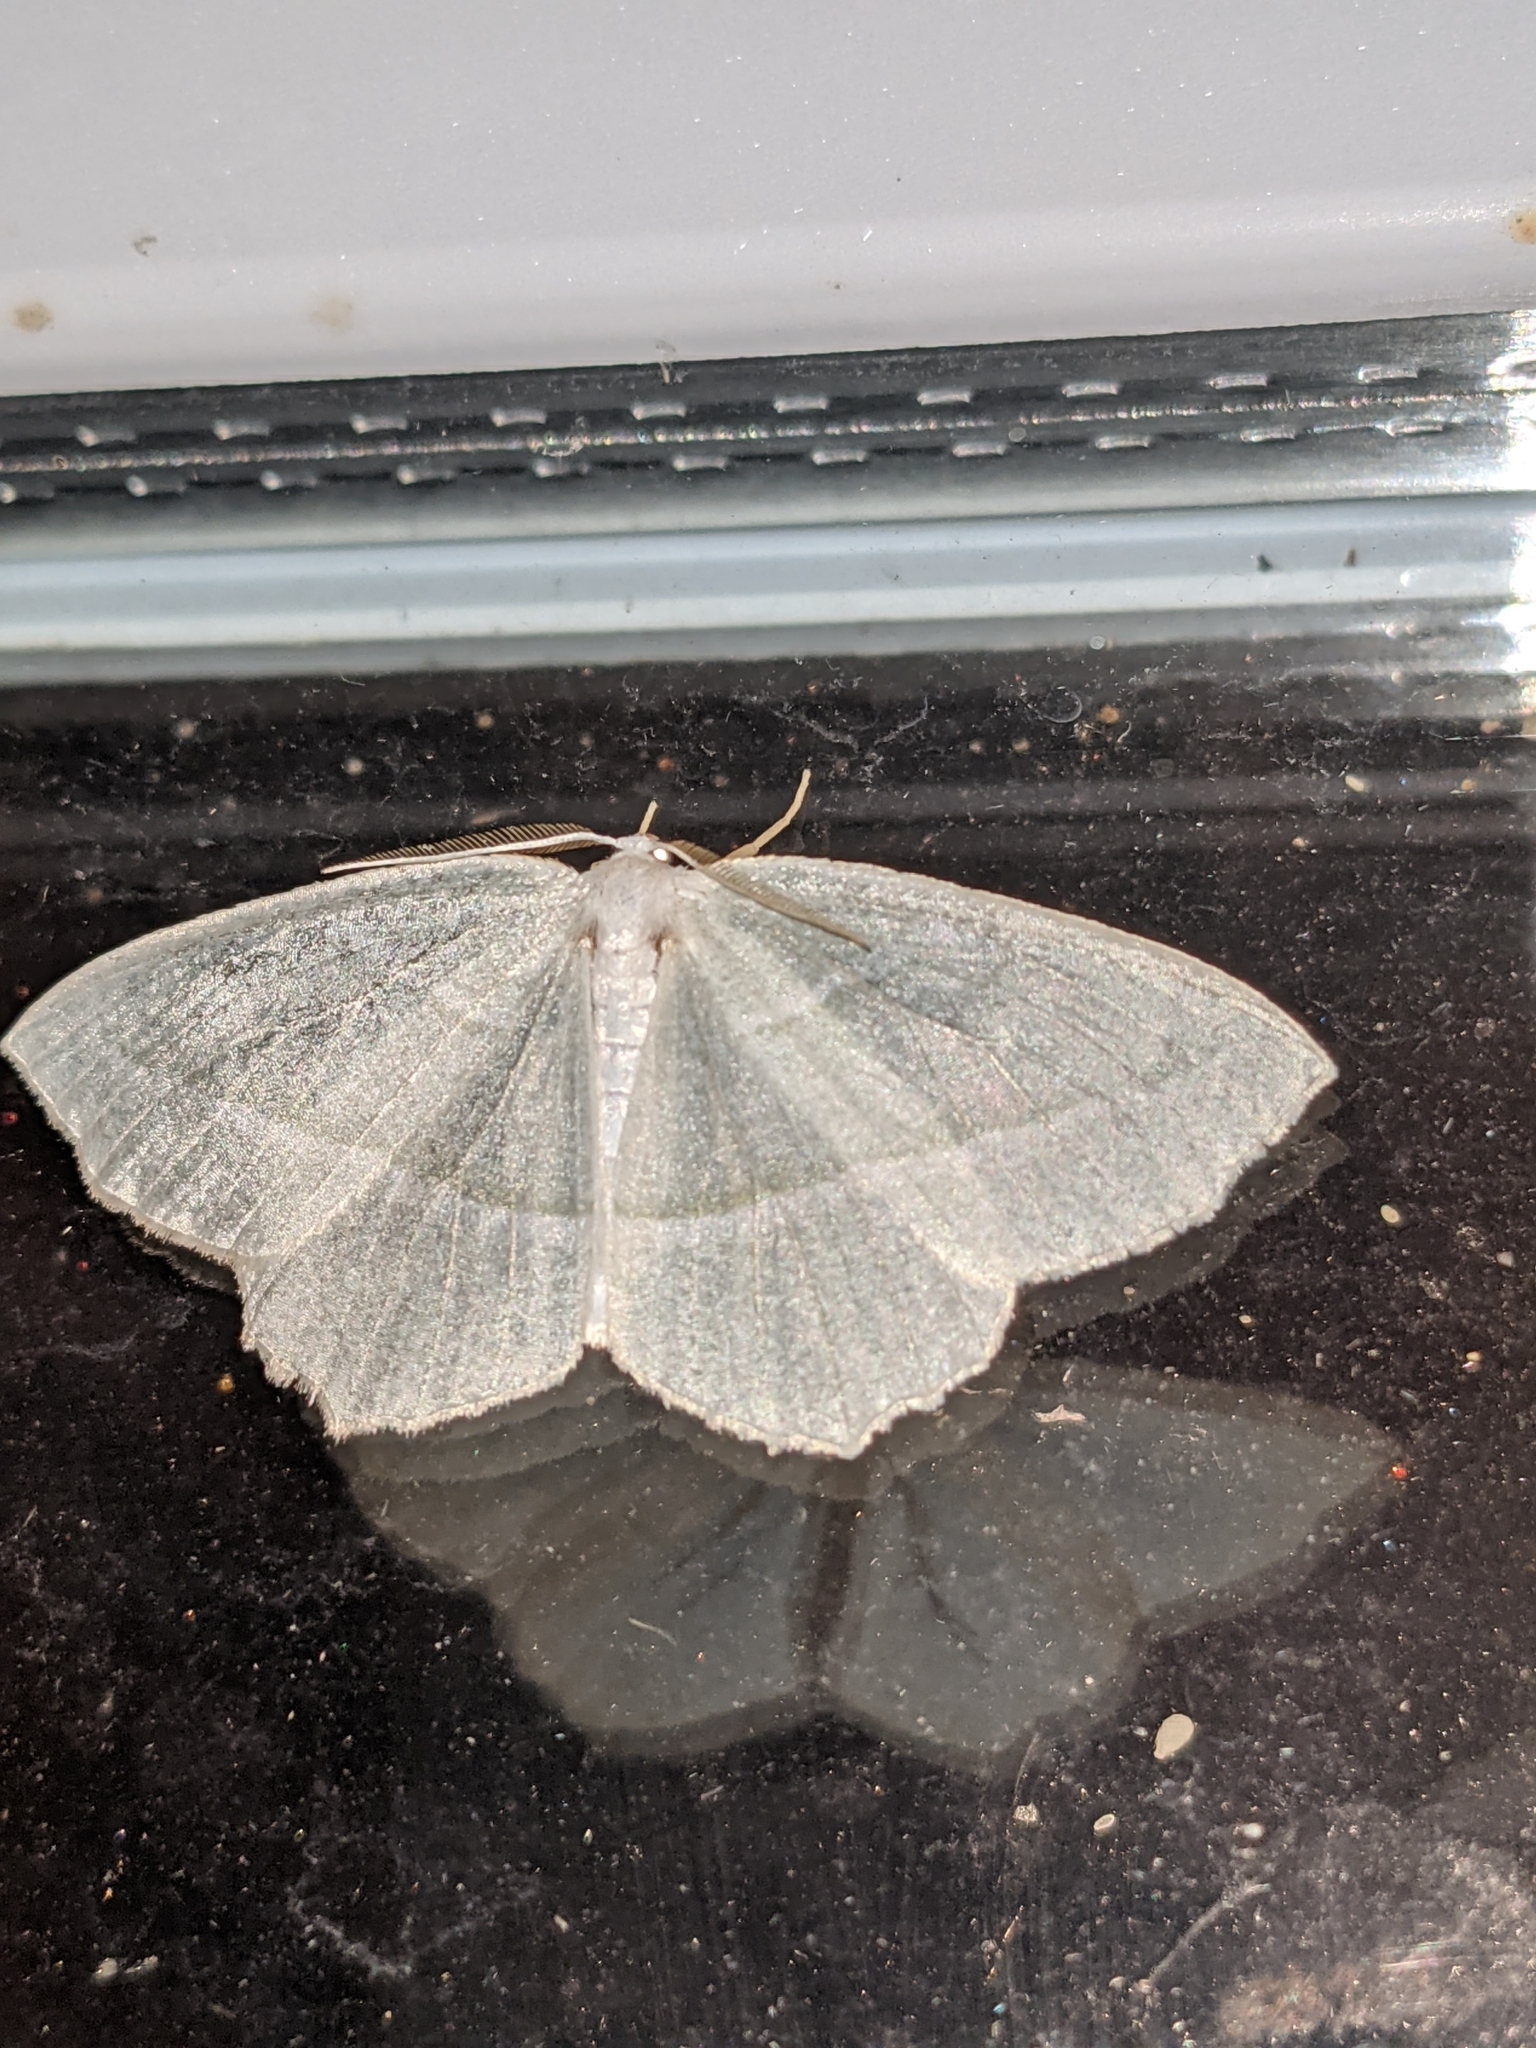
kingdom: Animalia
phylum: Arthropoda
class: Insecta
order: Lepidoptera
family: Geometridae
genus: Campaea
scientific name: Campaea perlata
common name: Fringed looper
